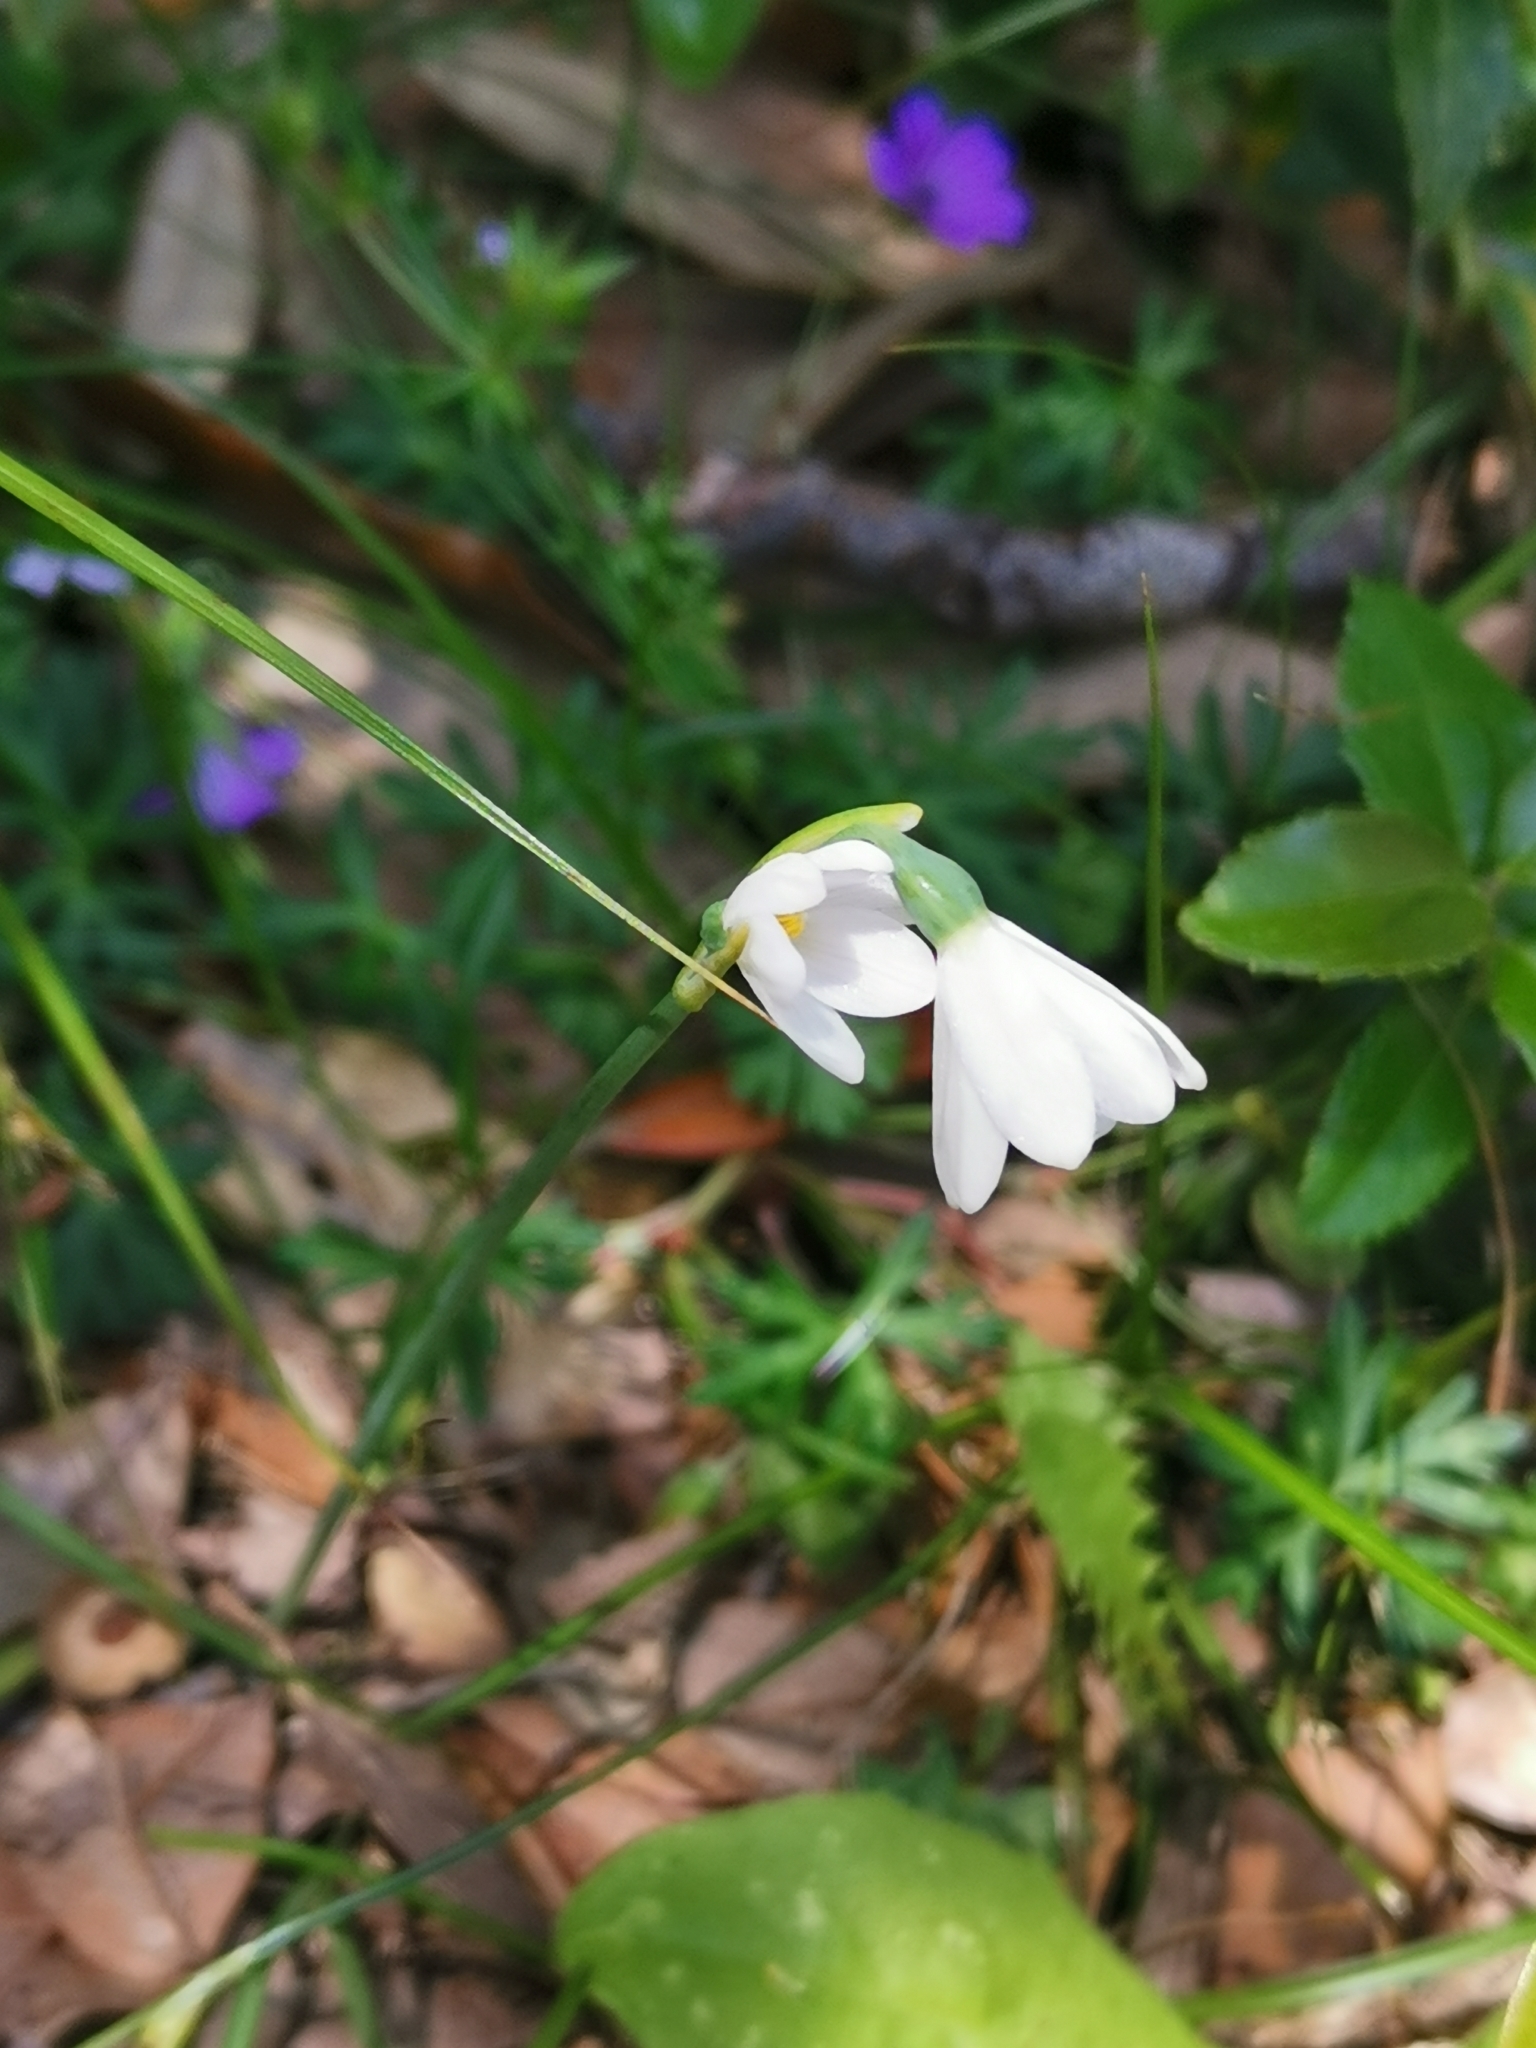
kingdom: Plantae
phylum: Tracheophyta
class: Liliopsida
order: Asparagales
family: Amaryllidaceae
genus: Acis
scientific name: Acis longifolia
